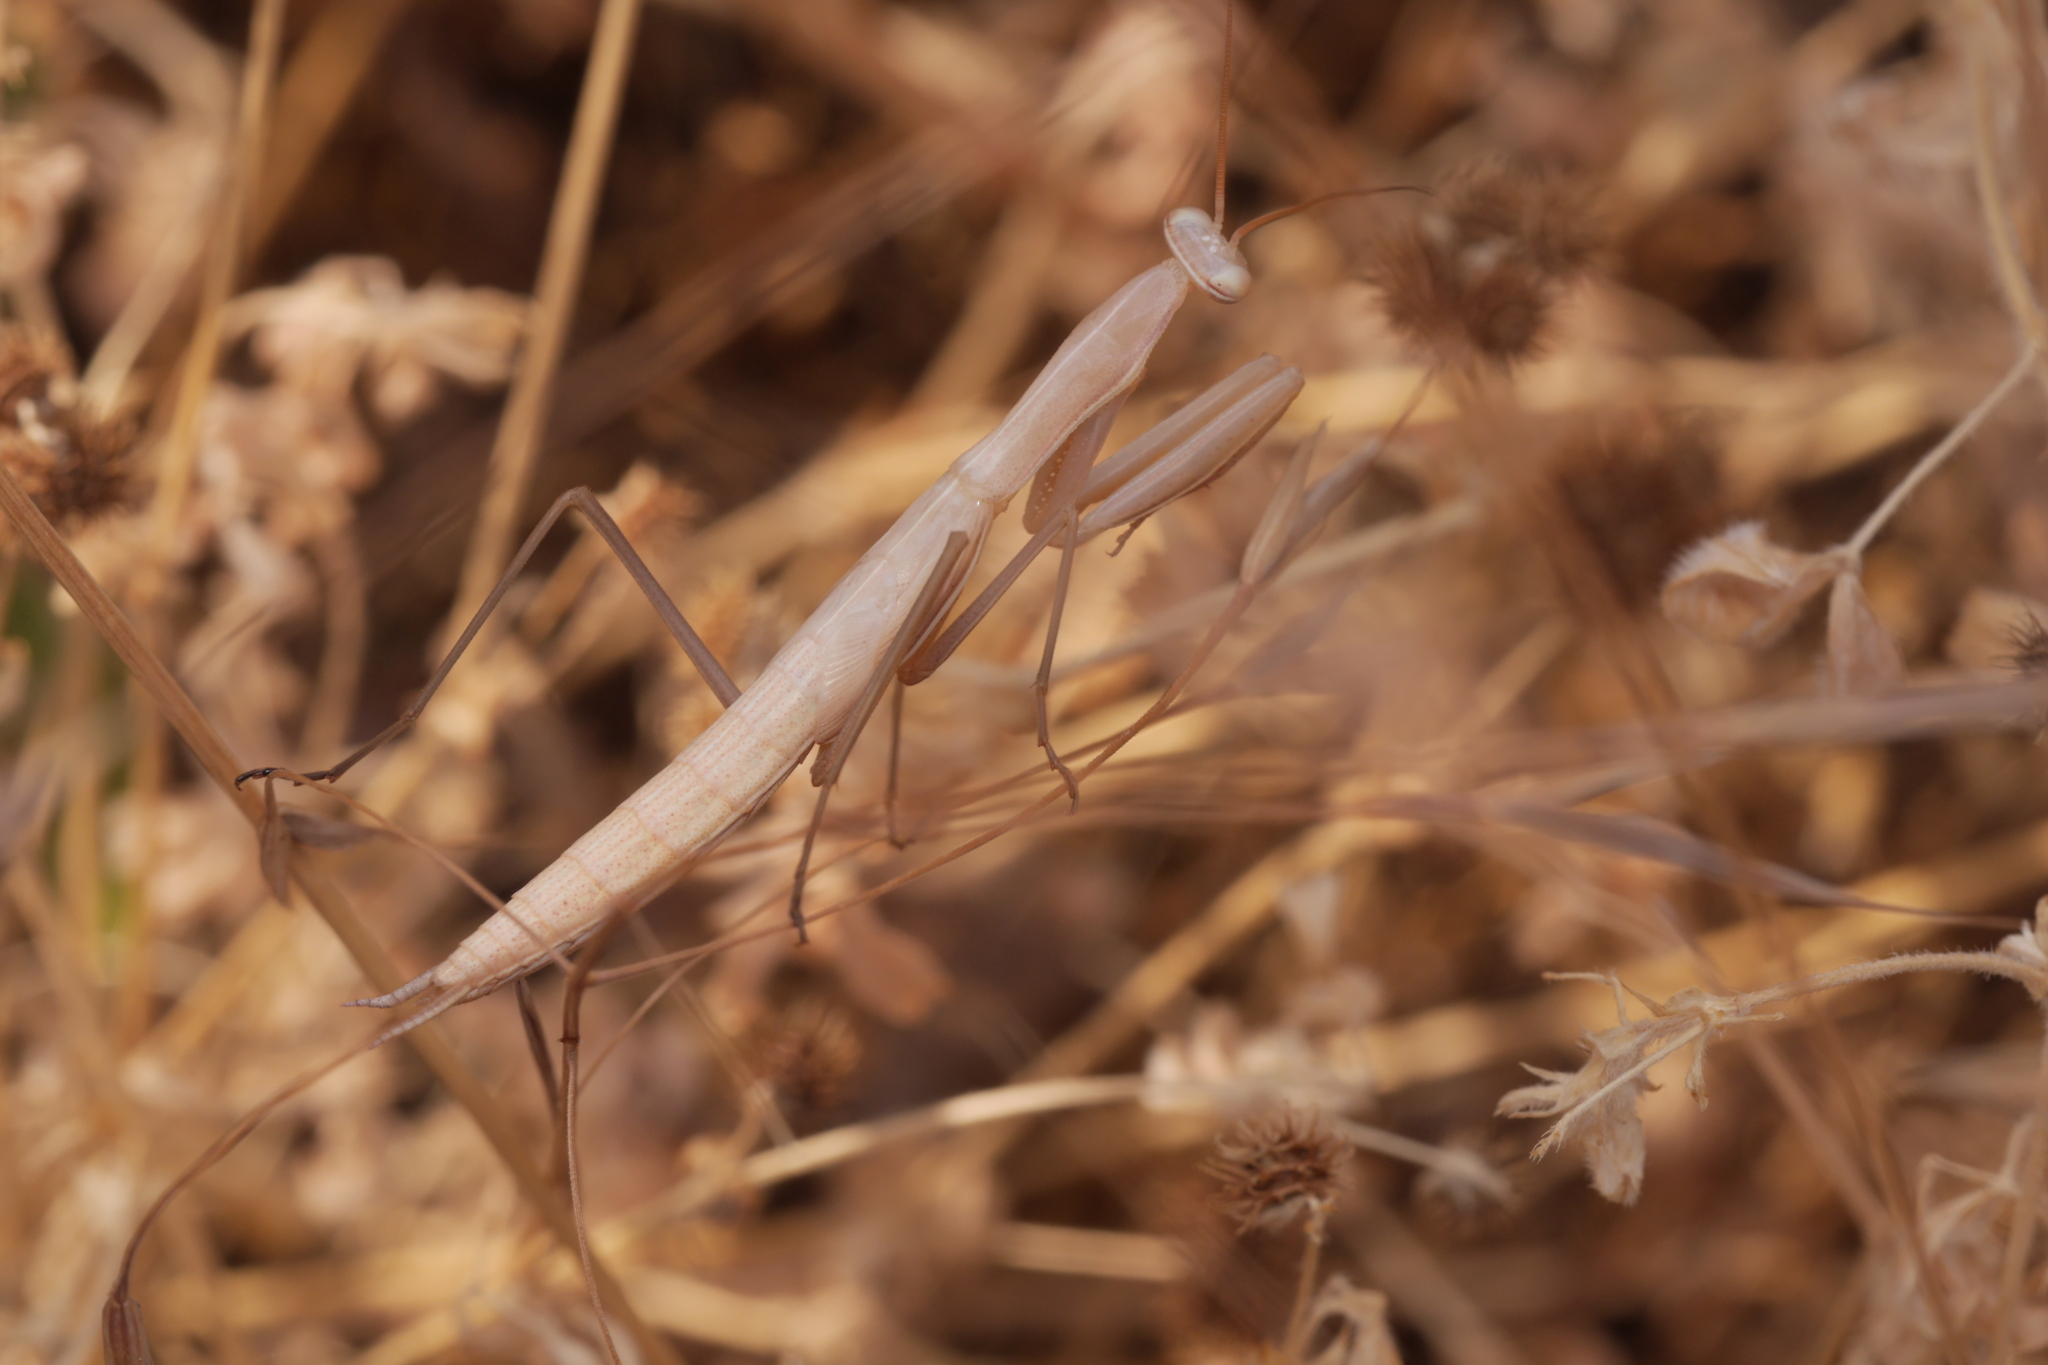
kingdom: Animalia
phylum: Arthropoda
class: Insecta
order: Mantodea
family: Mantidae
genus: Mantis
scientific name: Mantis religiosa
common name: Praying mantis
